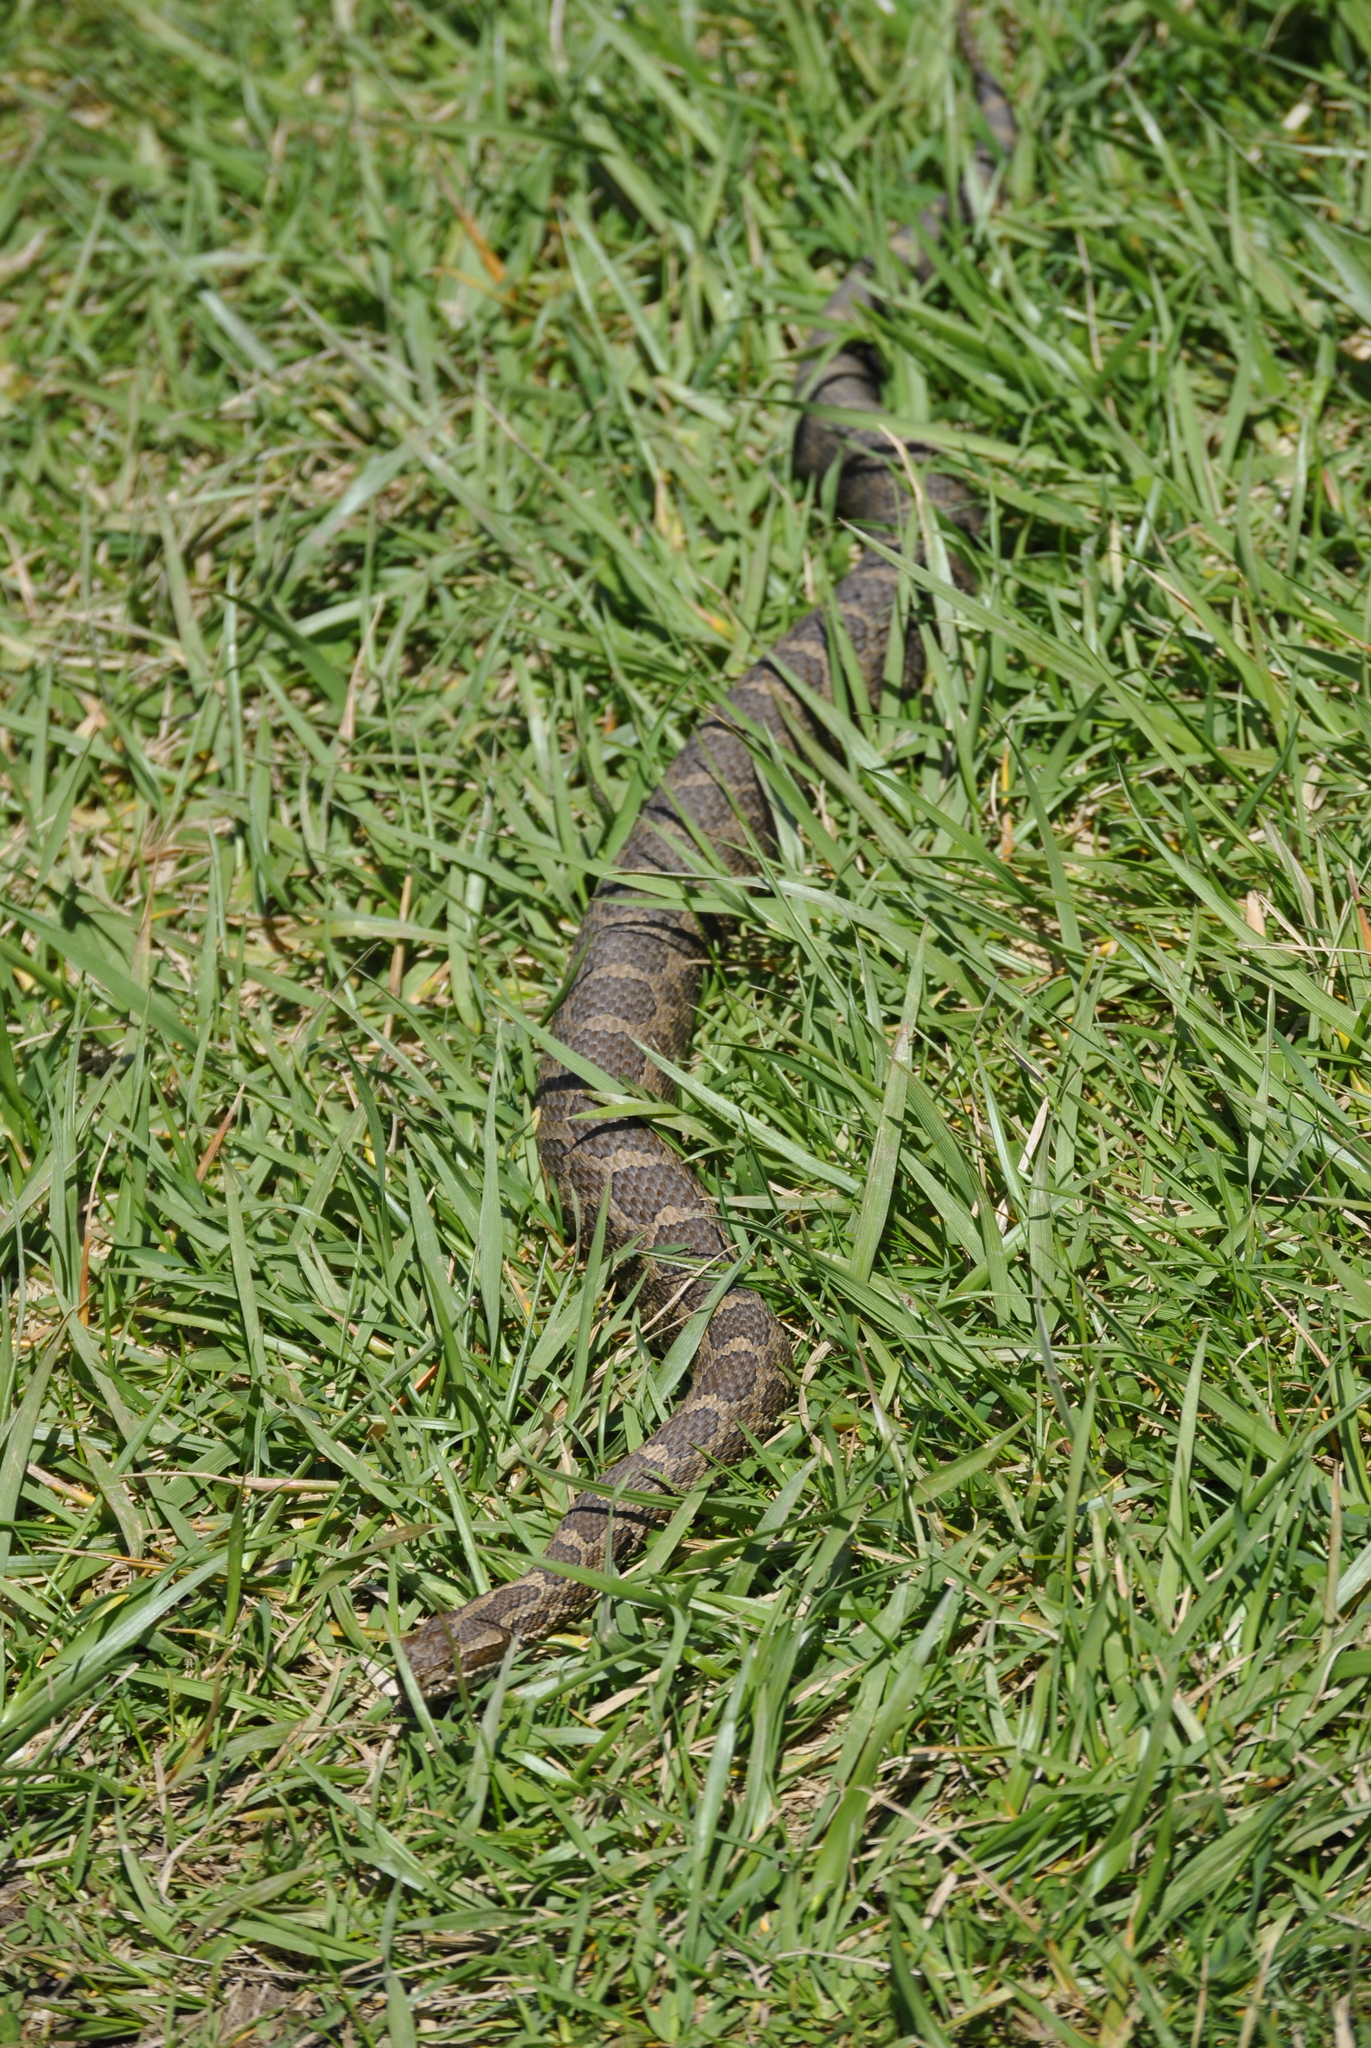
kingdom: Animalia
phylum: Chordata
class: Squamata
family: Viperidae
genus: Sistrurus
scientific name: Sistrurus catenatus
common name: Massasauga
